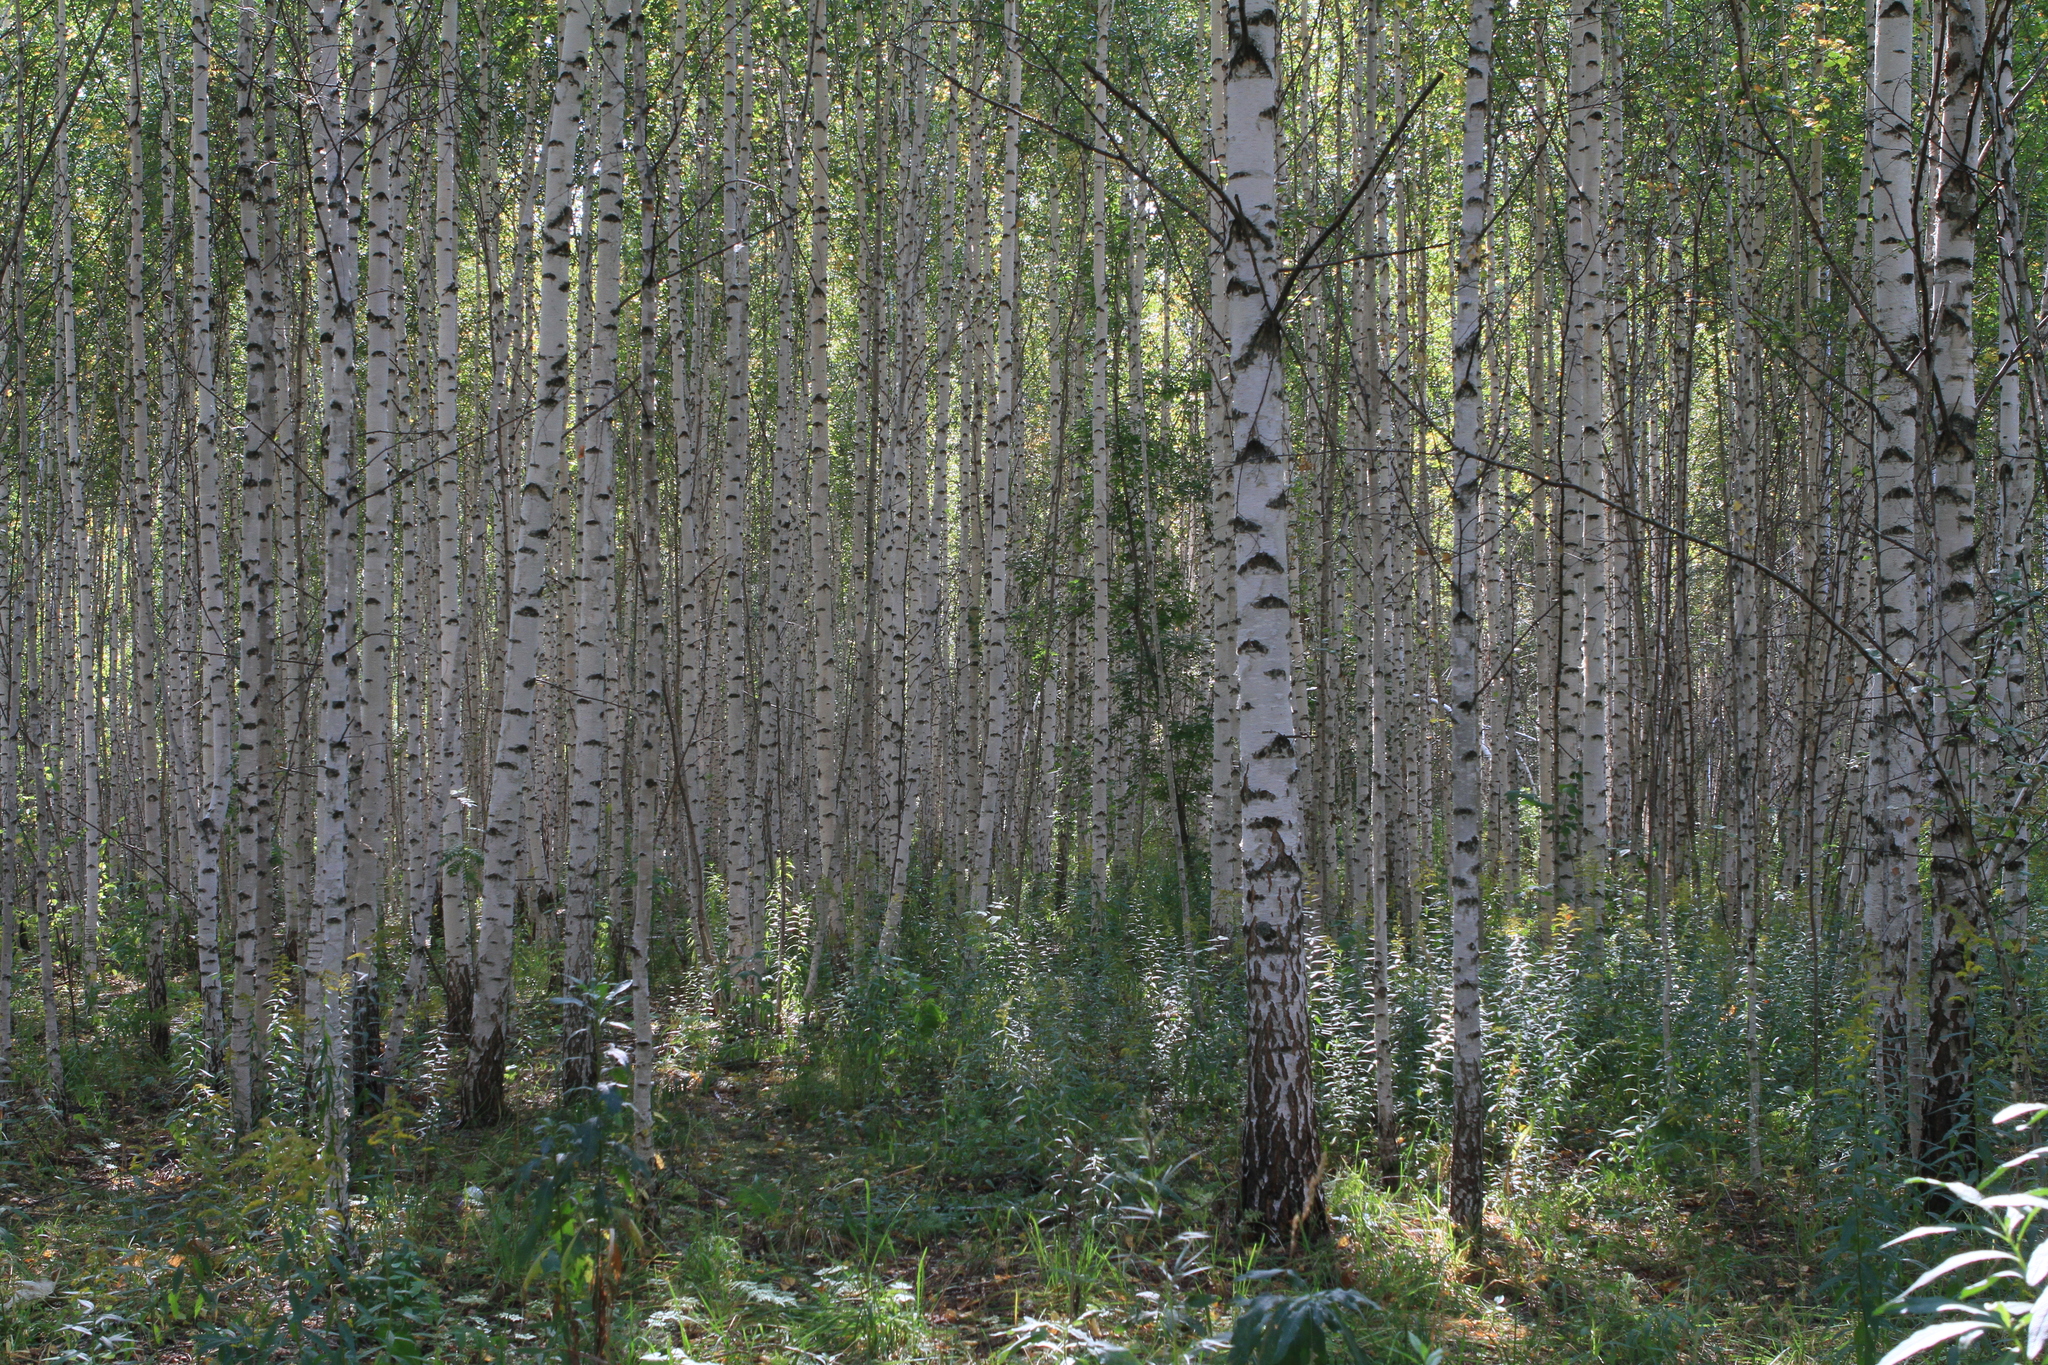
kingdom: Plantae
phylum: Tracheophyta
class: Magnoliopsida
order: Fagales
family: Betulaceae
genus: Betula
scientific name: Betula pendula
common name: Silver birch
